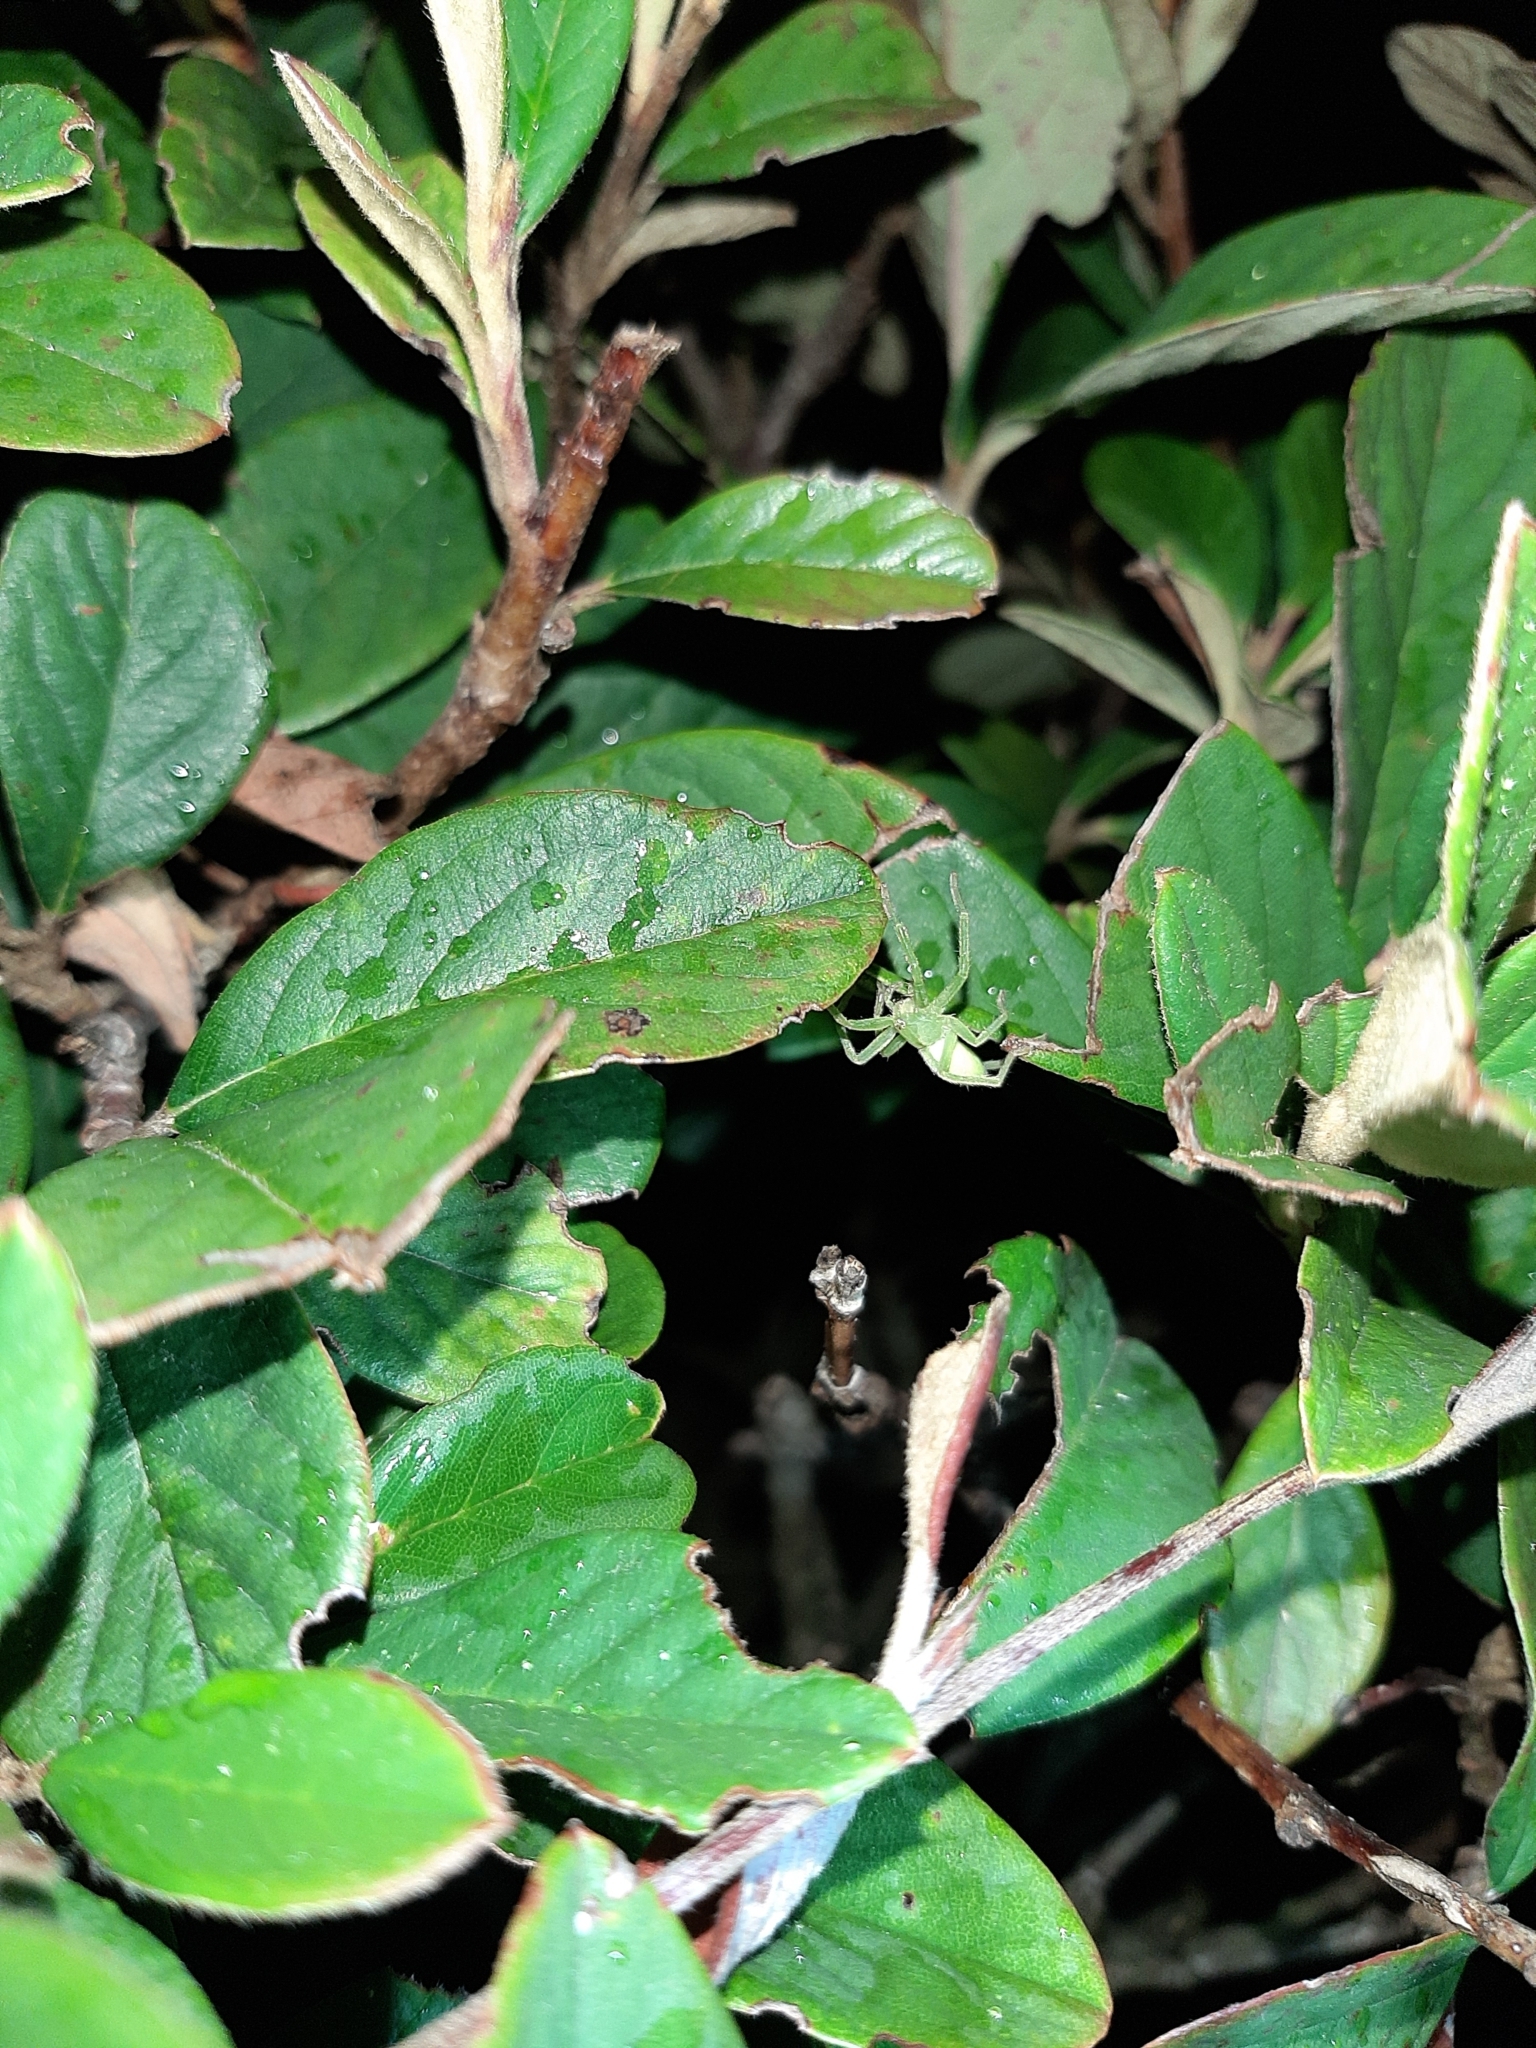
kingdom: Animalia
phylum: Arthropoda
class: Arachnida
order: Araneae
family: Sparassidae
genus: Micrommata
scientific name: Micrommata virescens
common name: Green spider
